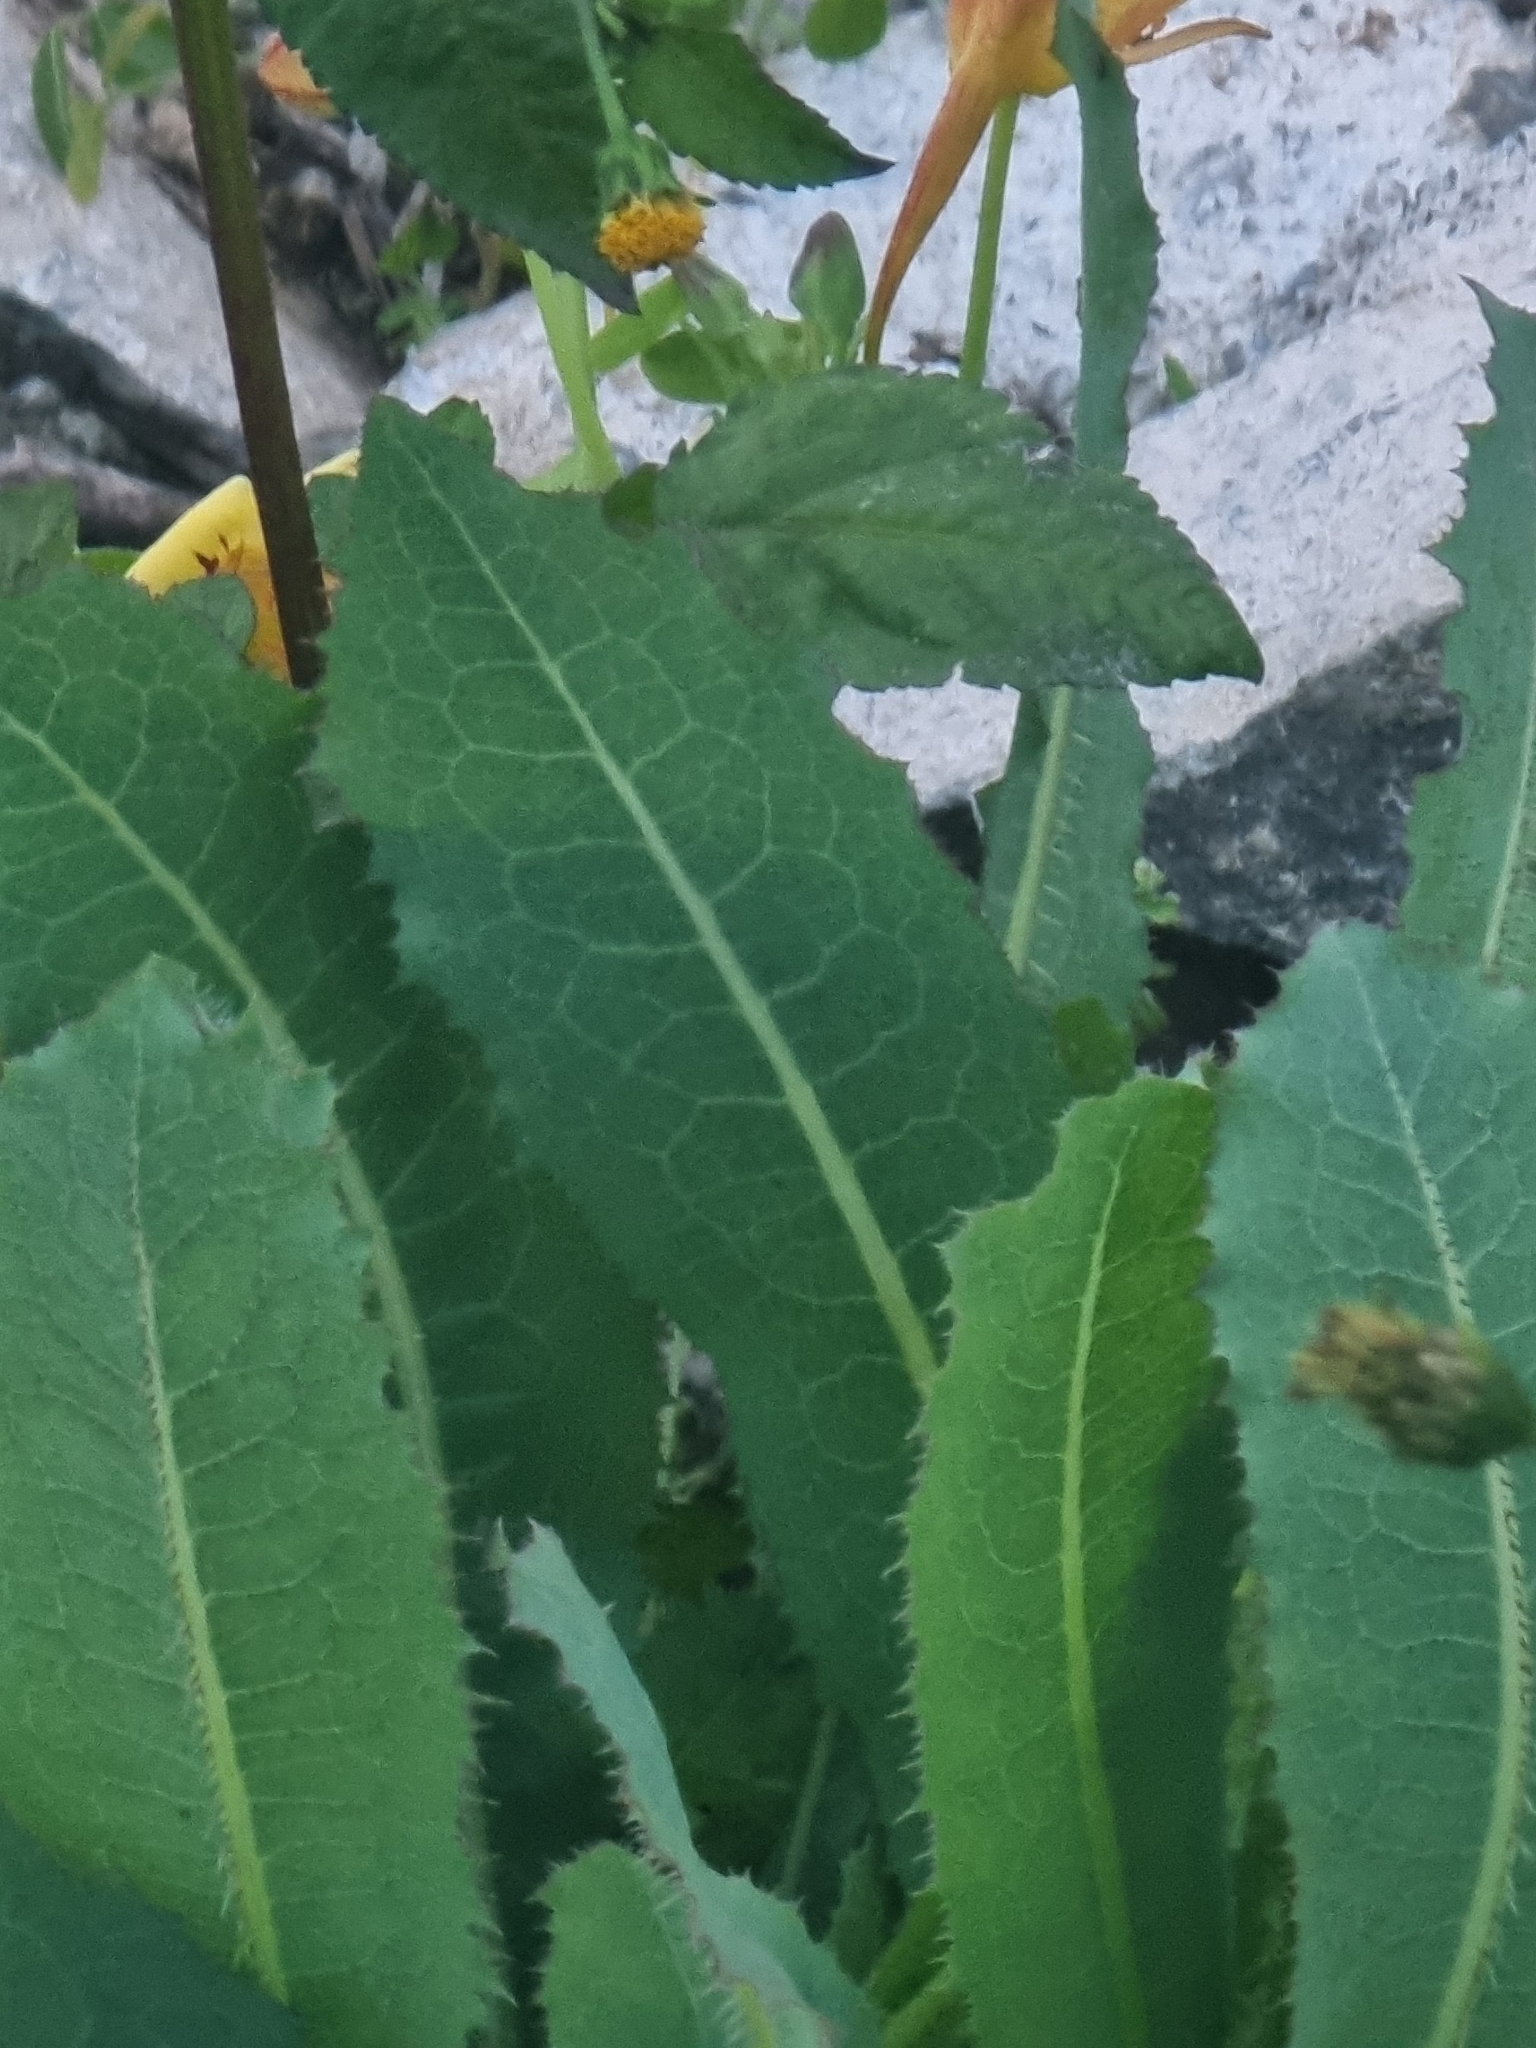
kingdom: Plantae
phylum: Tracheophyta
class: Magnoliopsida
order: Asterales
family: Asteraceae
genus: Lactuca
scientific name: Lactuca serriola
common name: Prickly lettuce
